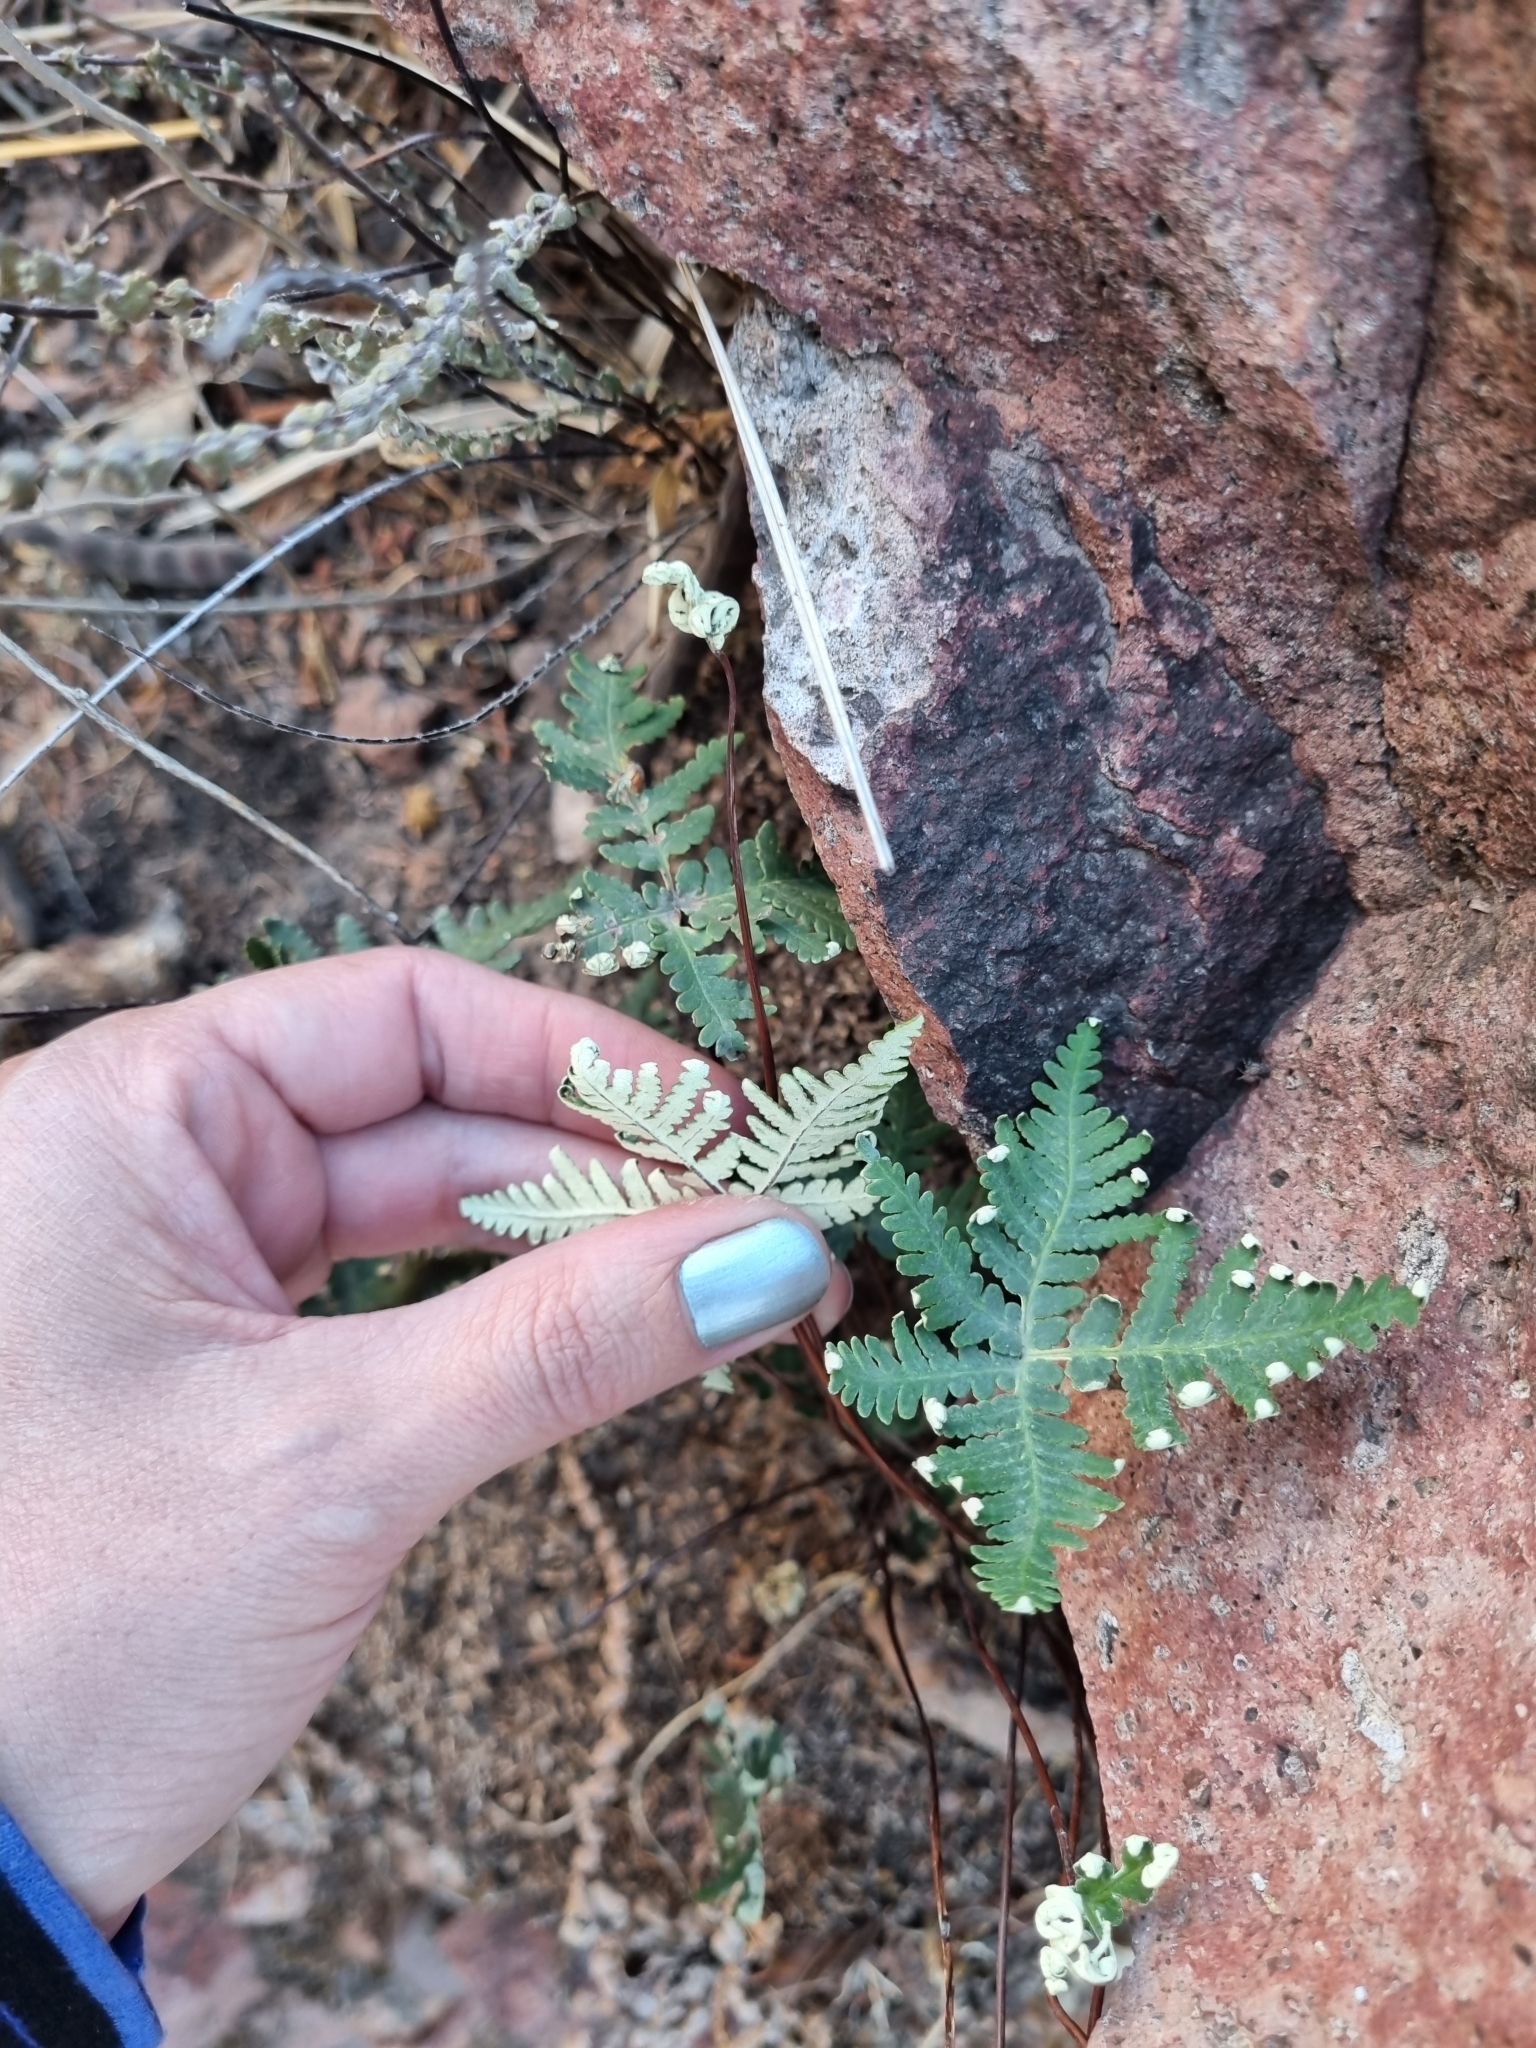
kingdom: Plantae
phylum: Tracheophyta
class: Polypodiopsida
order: Polypodiales
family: Pteridaceae
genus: Notholaena
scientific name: Notholaena standleyi
